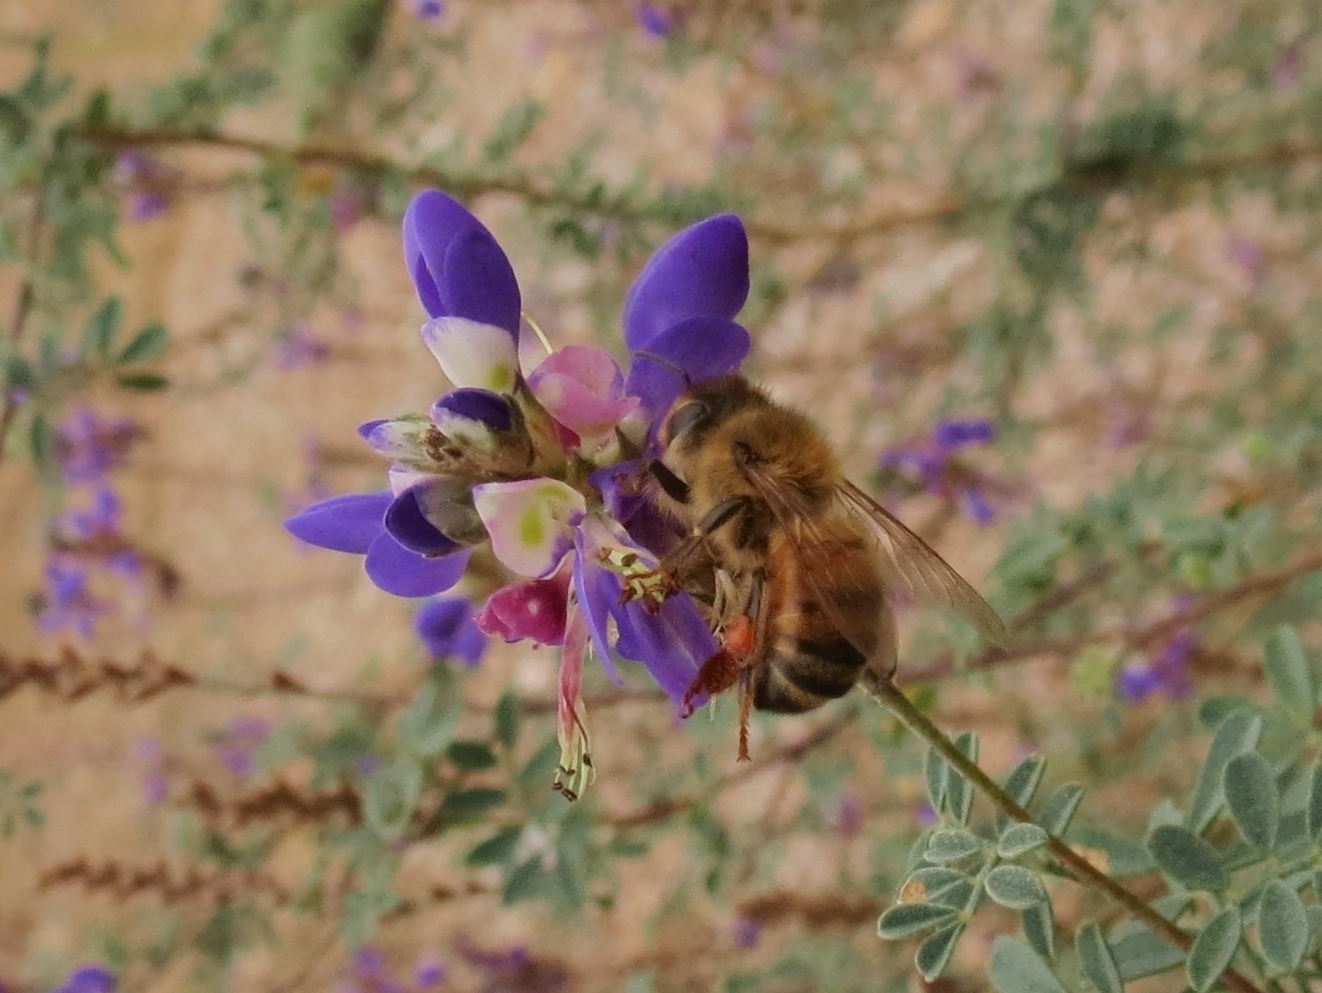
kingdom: Animalia
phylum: Arthropoda
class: Insecta
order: Hymenoptera
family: Apidae
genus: Apis
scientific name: Apis mellifera
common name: Honey bee
